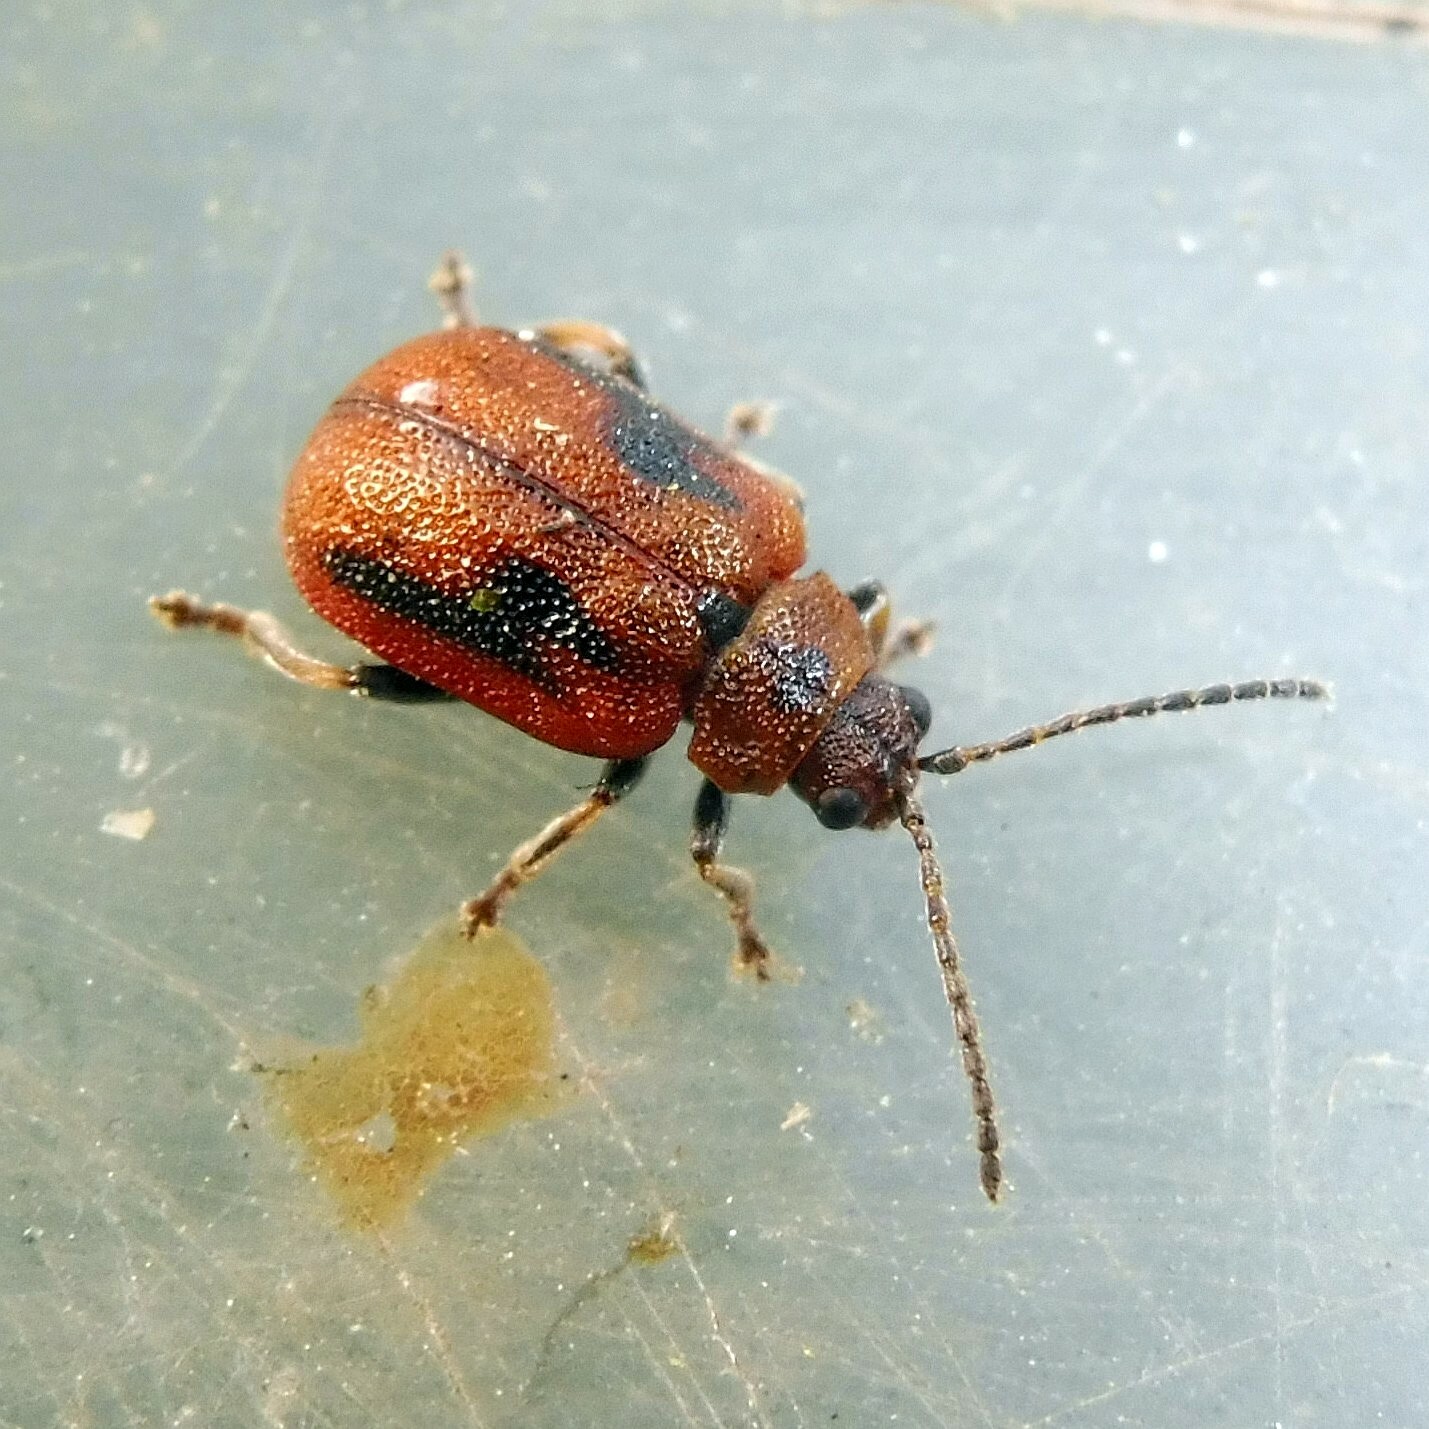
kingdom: Animalia
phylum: Arthropoda
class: Insecta
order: Coleoptera
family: Chrysomelidae
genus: Lochmaea
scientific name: Lochmaea crataegi
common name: Hawthorn leaf beetle
